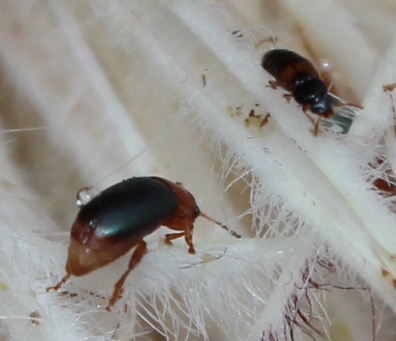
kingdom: Animalia
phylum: Arthropoda
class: Insecta
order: Coleoptera
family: Chrysomelidae
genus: Chirodica
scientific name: Chirodica
